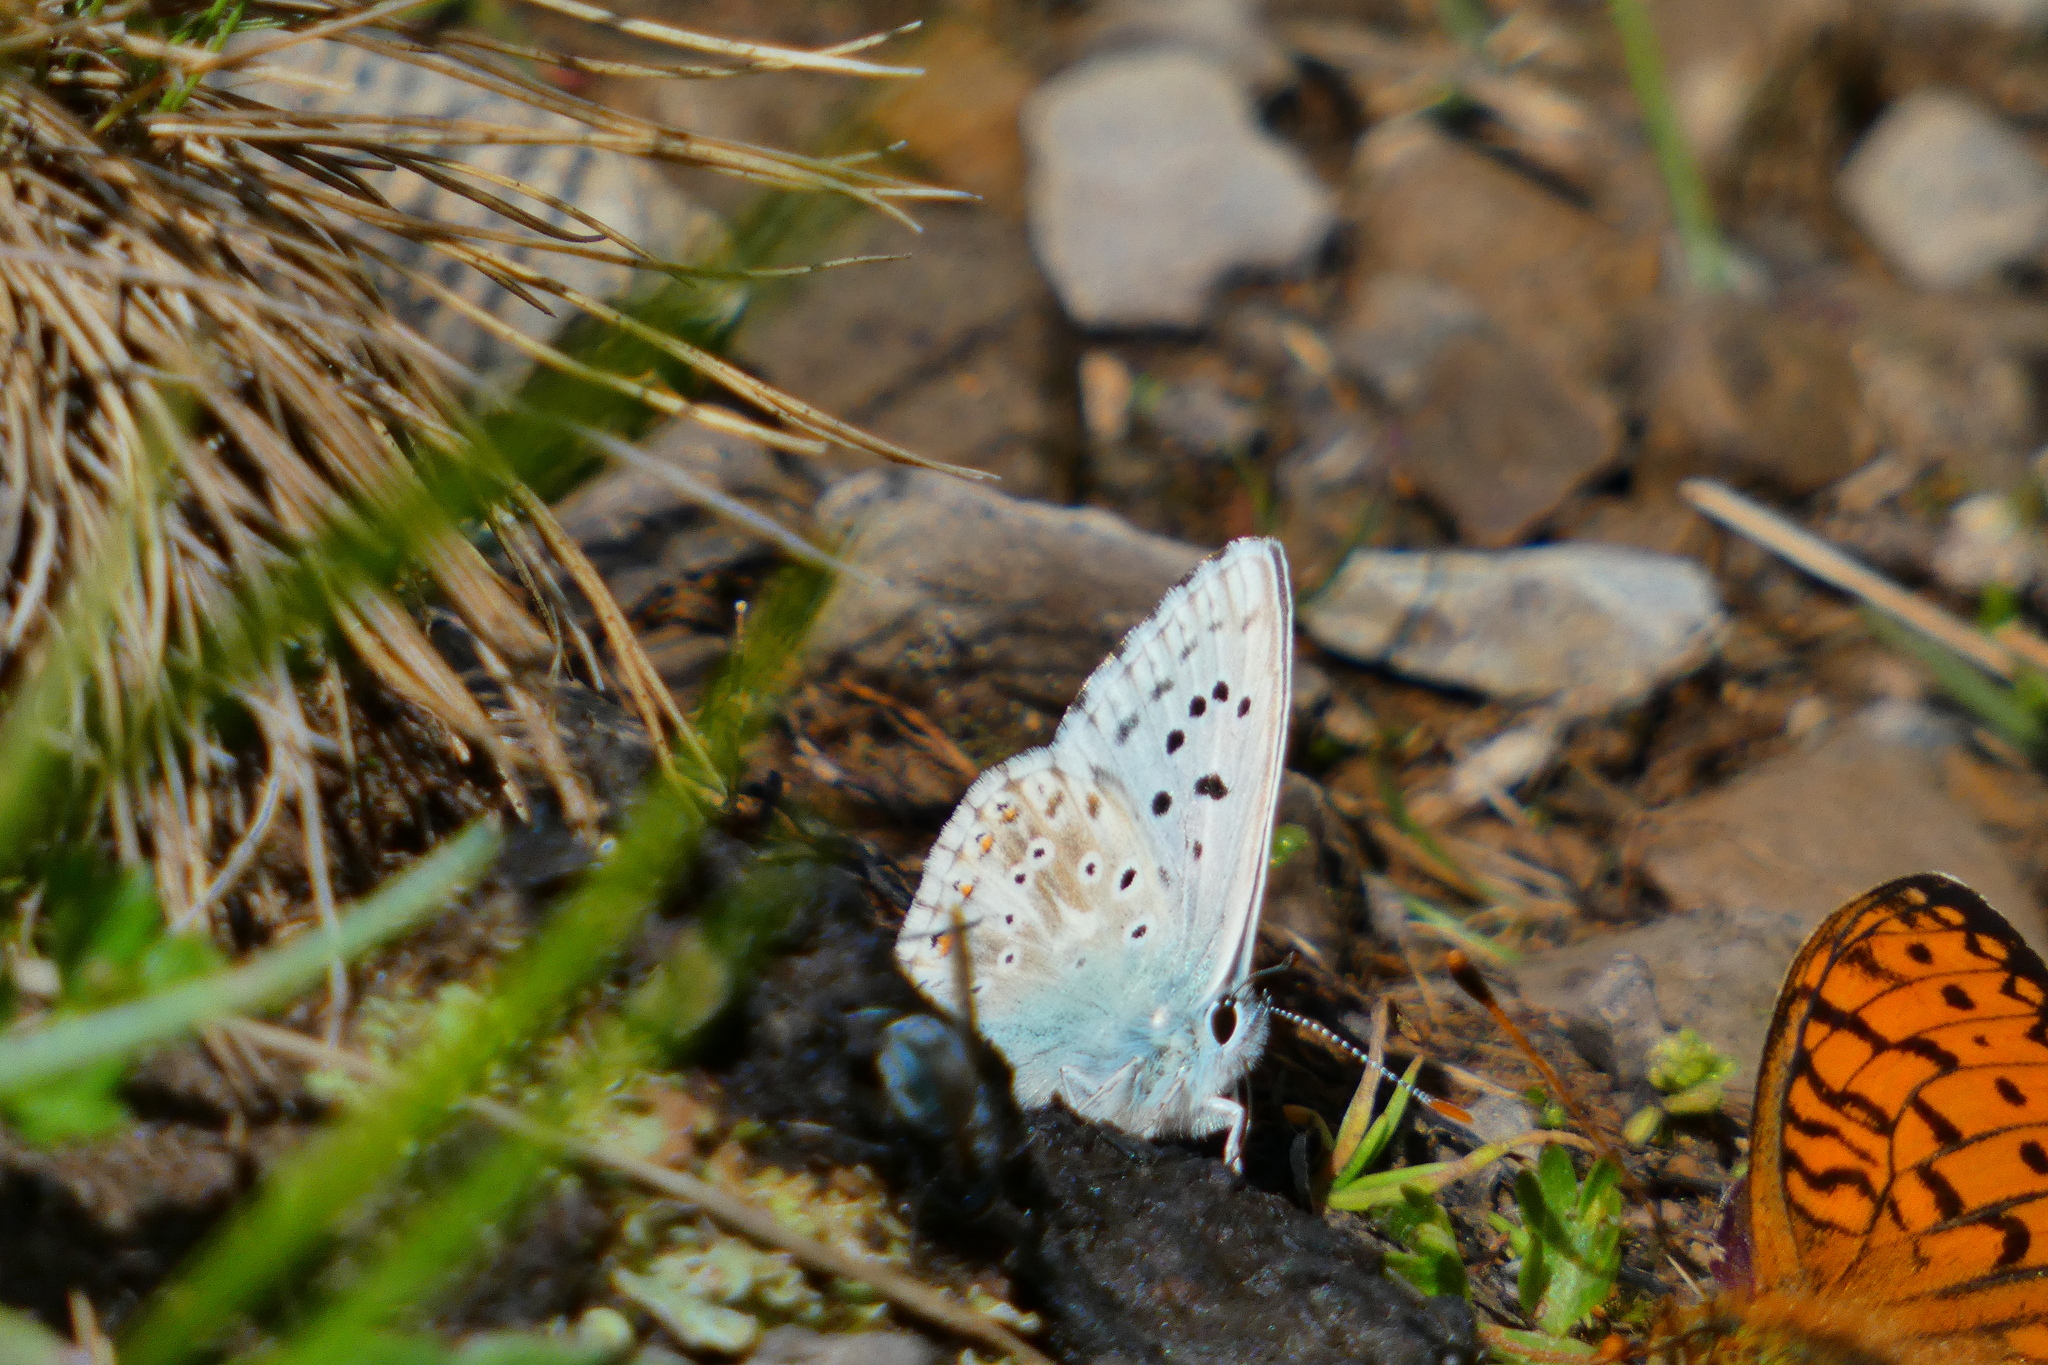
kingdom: Animalia
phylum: Arthropoda
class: Insecta
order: Lepidoptera
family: Lycaenidae
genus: Lysandra
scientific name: Lysandra coridon
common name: Chalkhill blue
